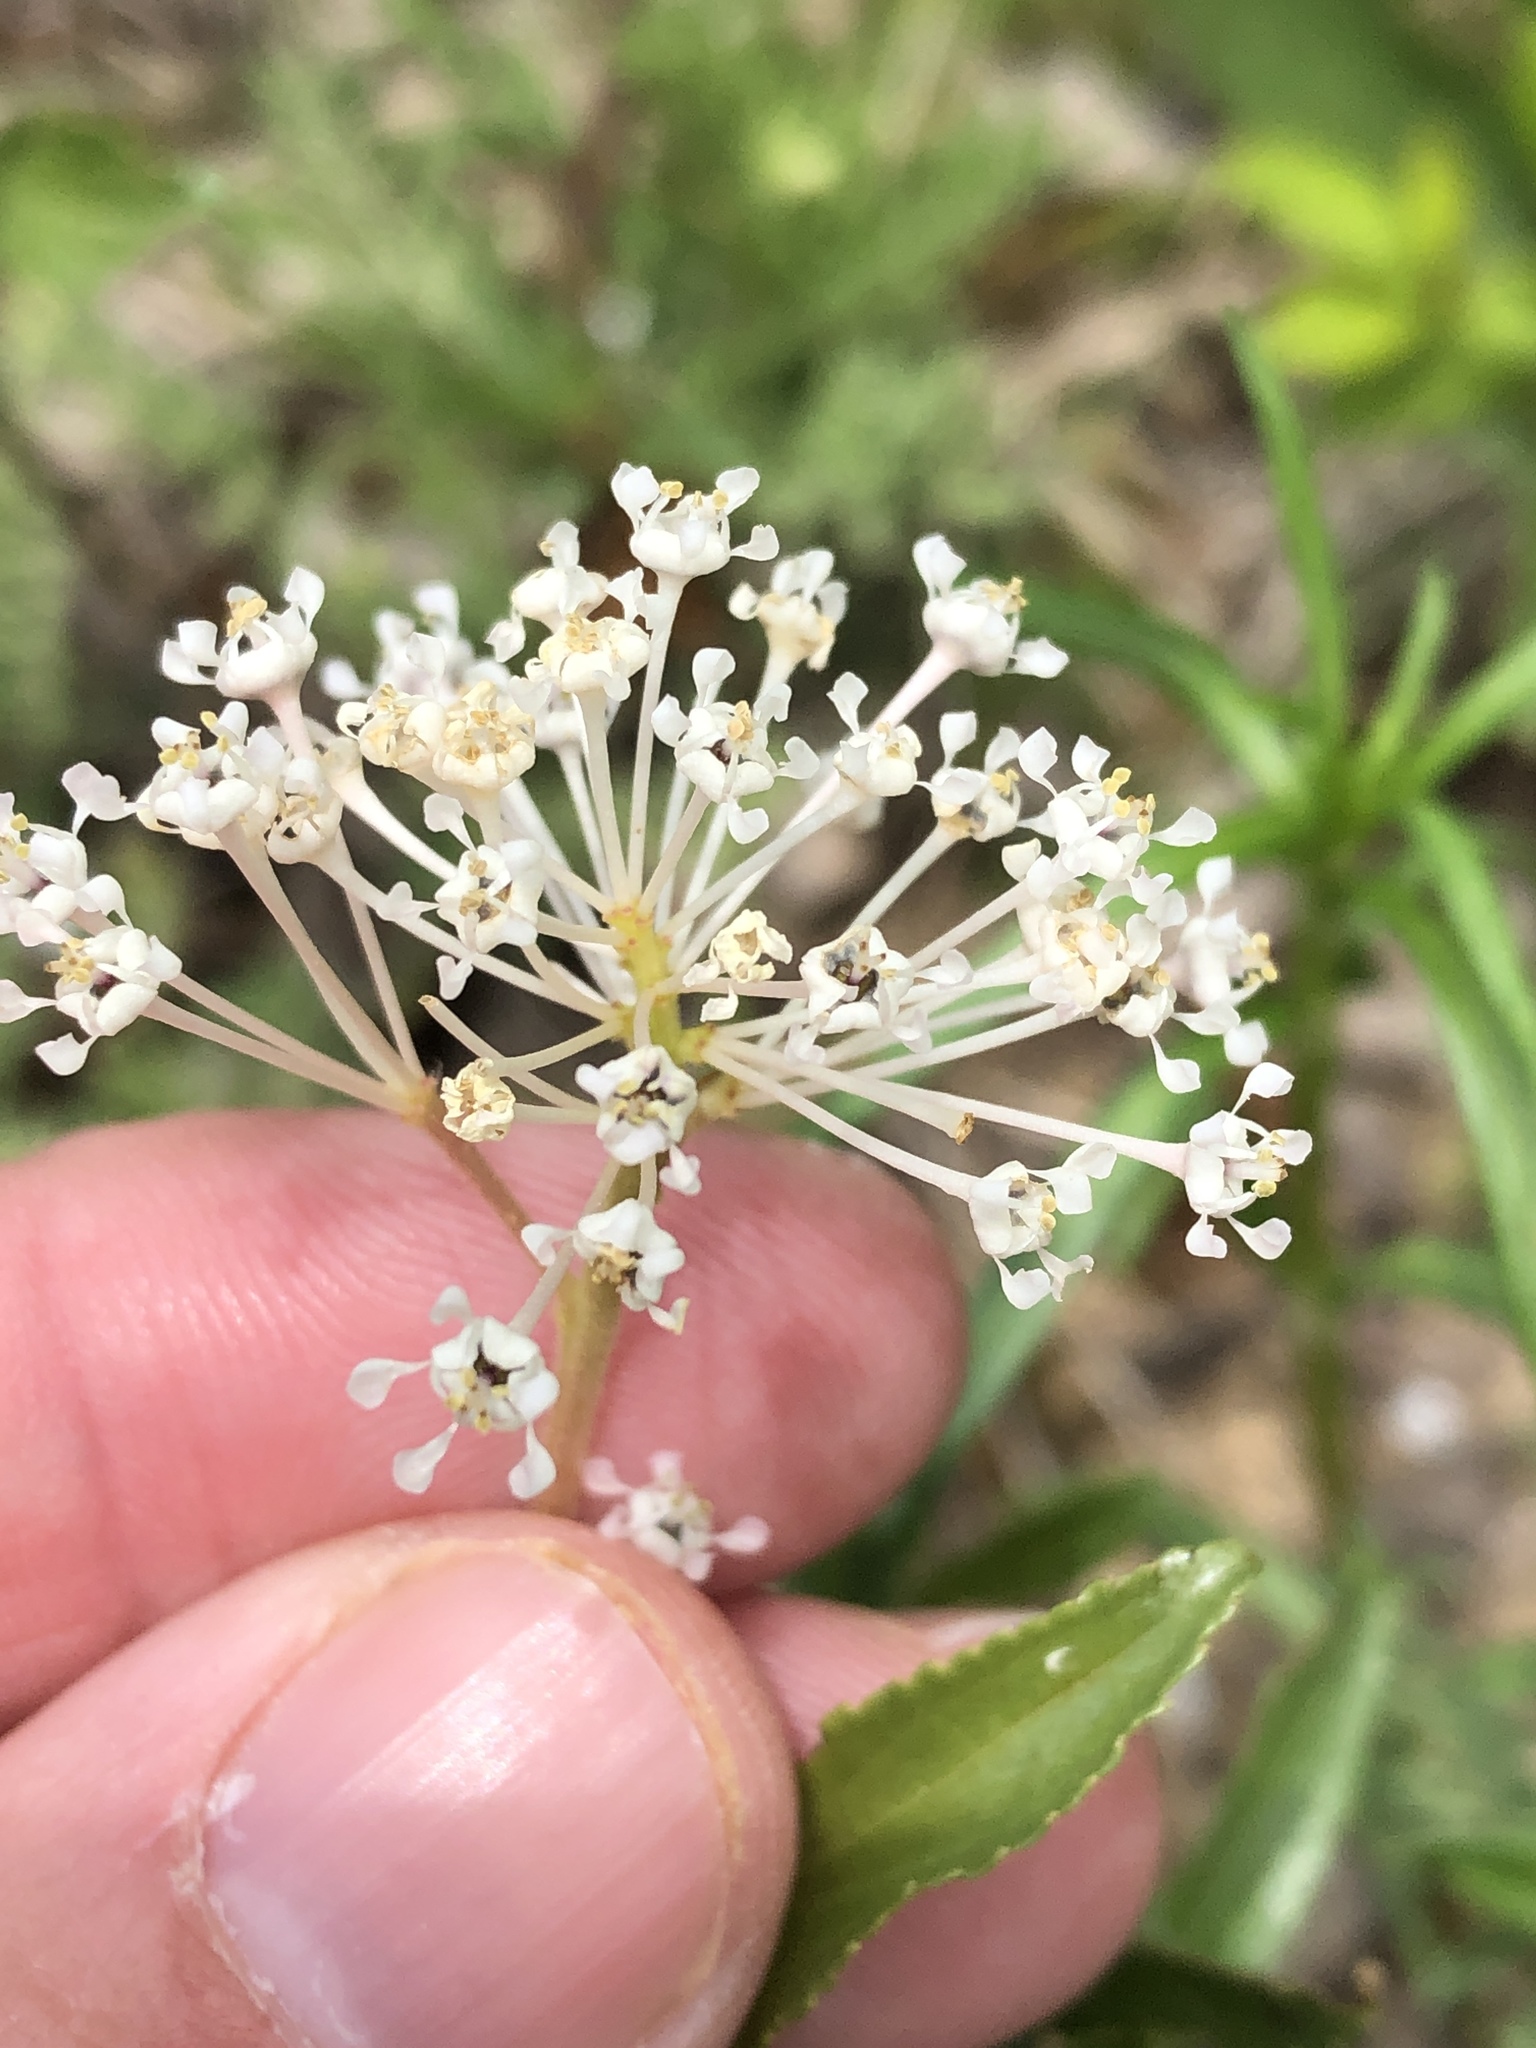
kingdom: Plantae
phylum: Tracheophyta
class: Magnoliopsida
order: Rosales
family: Rhamnaceae
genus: Ceanothus
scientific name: Ceanothus herbaceus
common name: Inland ceanothus
